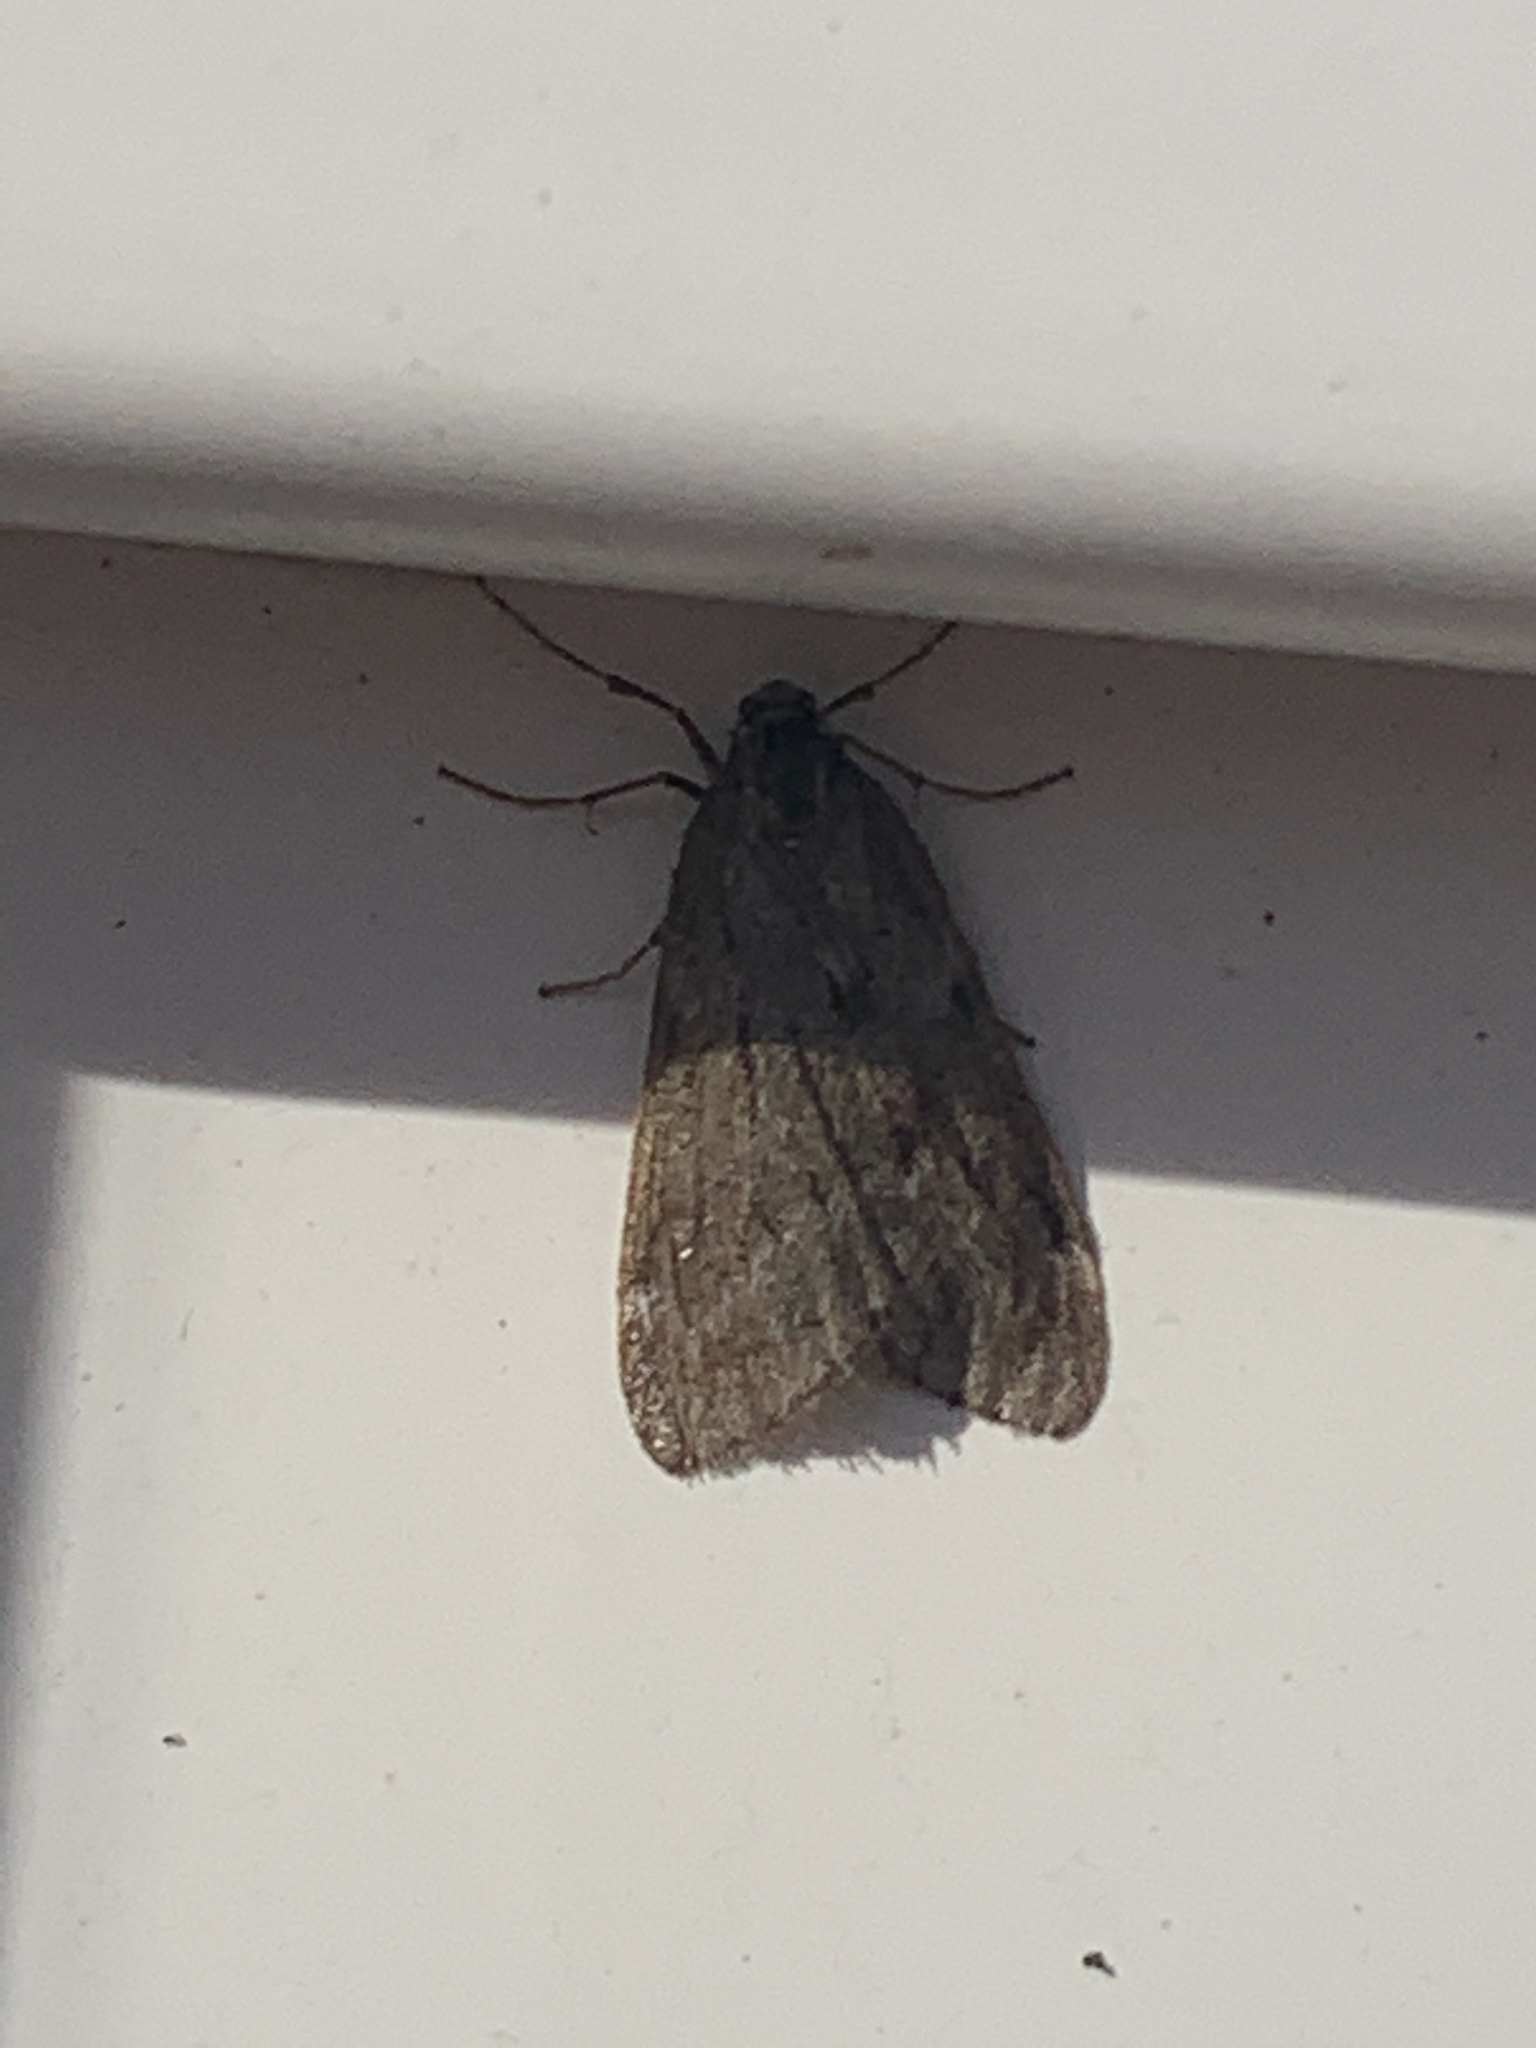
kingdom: Animalia
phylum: Arthropoda
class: Insecta
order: Lepidoptera
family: Geometridae
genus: Alsophila
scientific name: Alsophila pometaria
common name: Fall cankerworm
